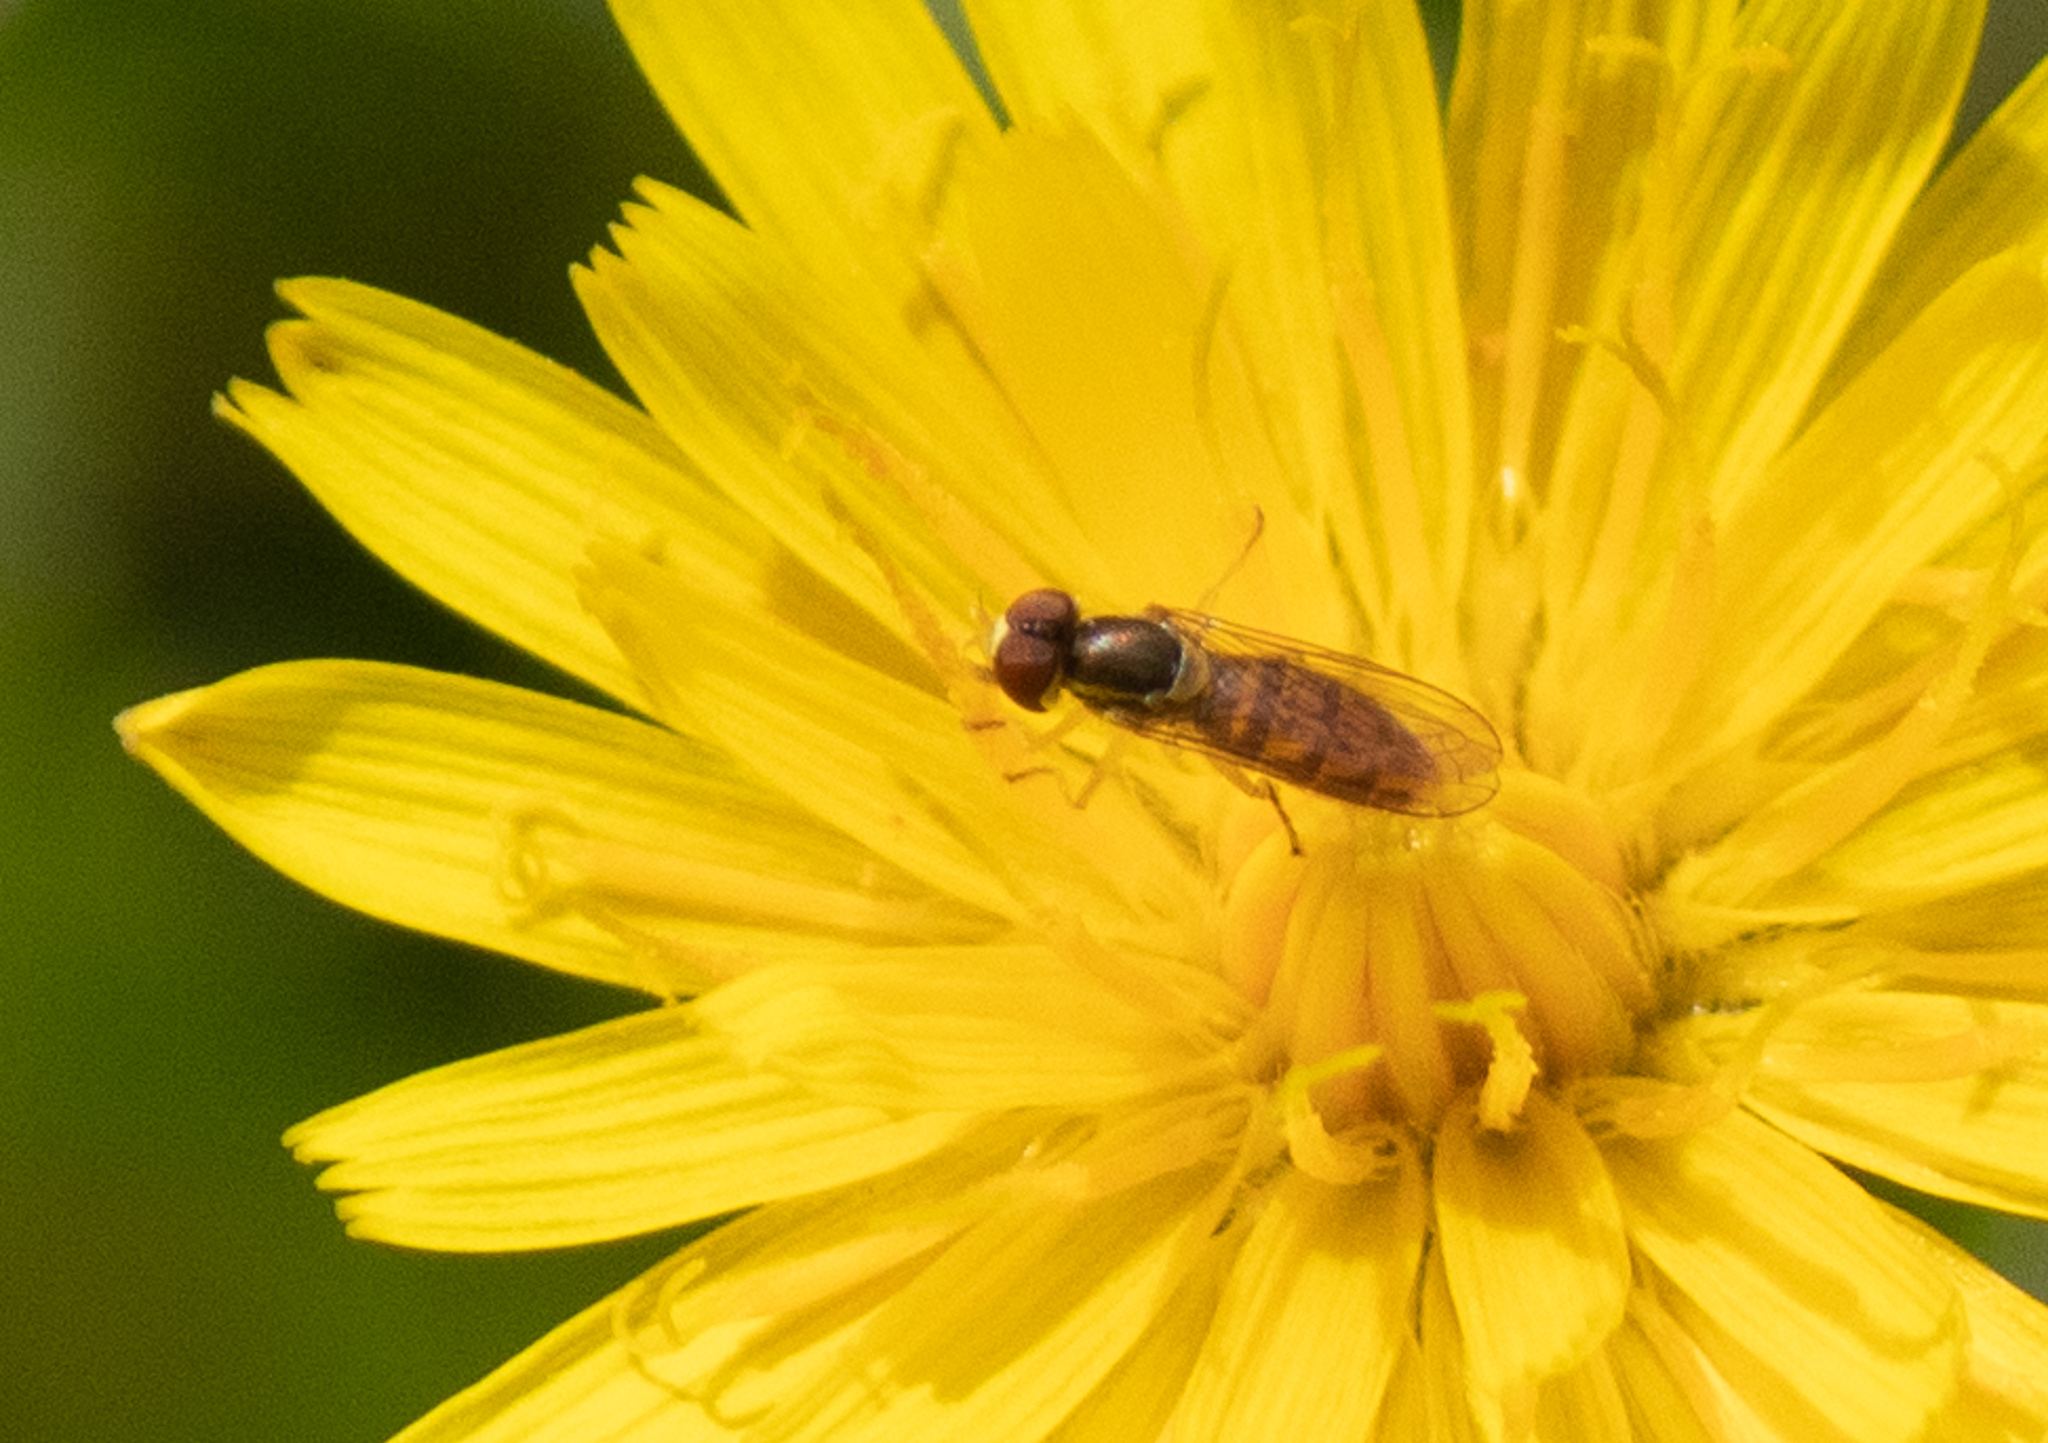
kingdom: Animalia
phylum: Arthropoda
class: Insecta
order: Diptera
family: Syrphidae
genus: Toxomerus
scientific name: Toxomerus marginatus
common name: Syrphid fly
